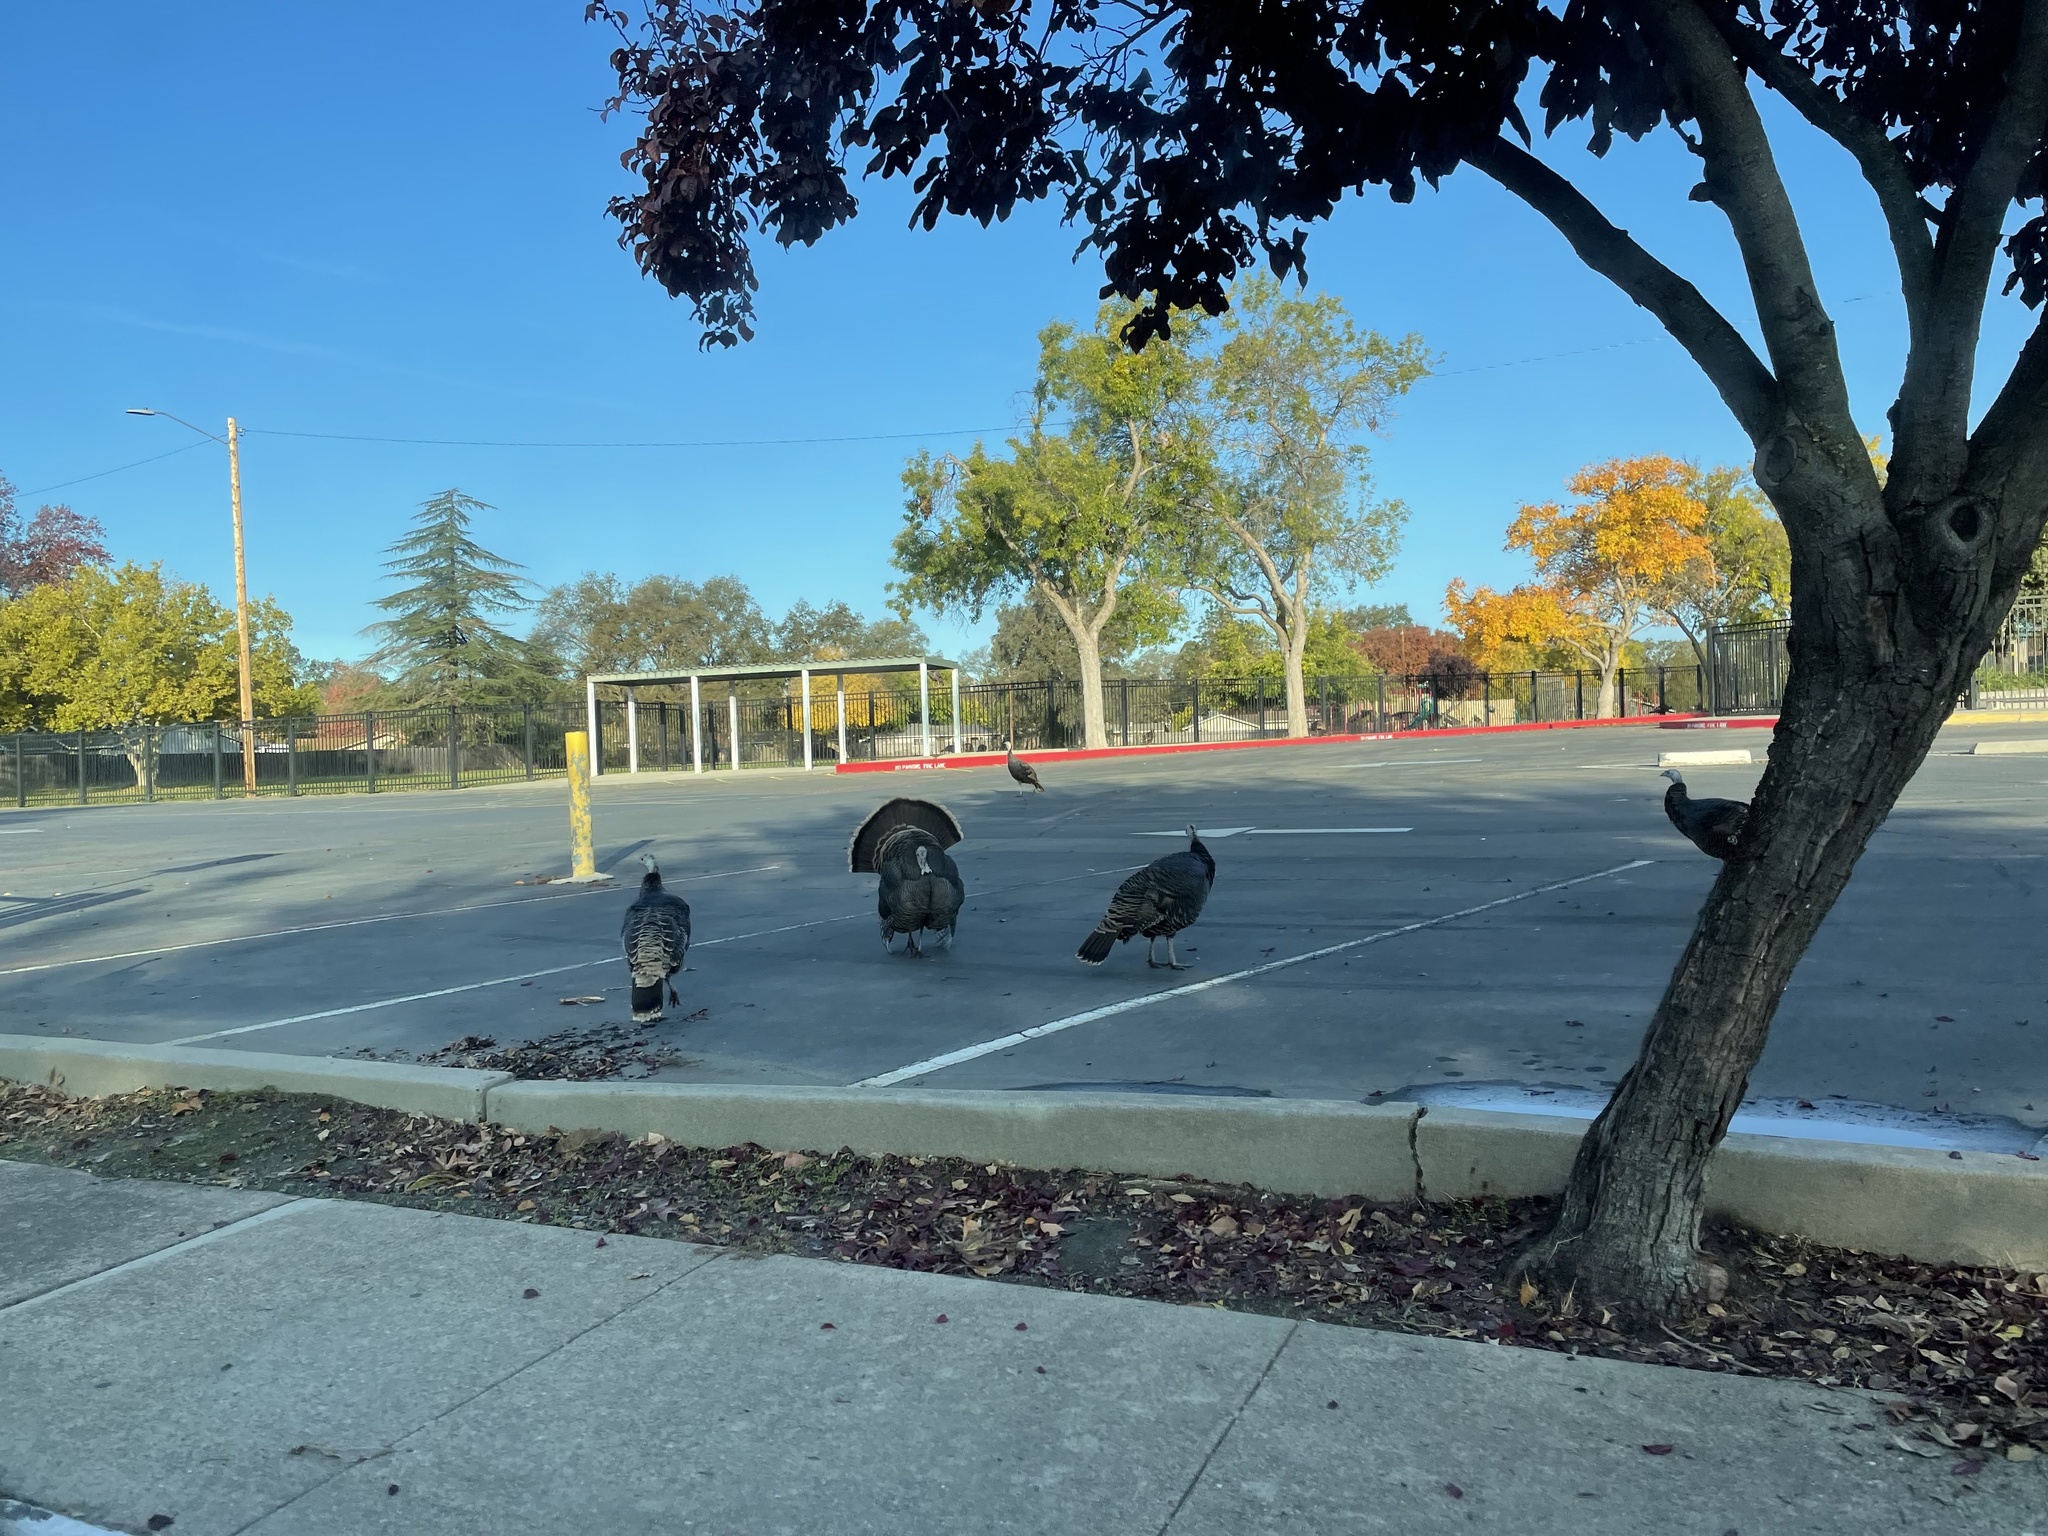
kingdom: Animalia
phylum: Chordata
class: Aves
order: Galliformes
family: Phasianidae
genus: Meleagris
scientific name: Meleagris gallopavo
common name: Wild turkey
